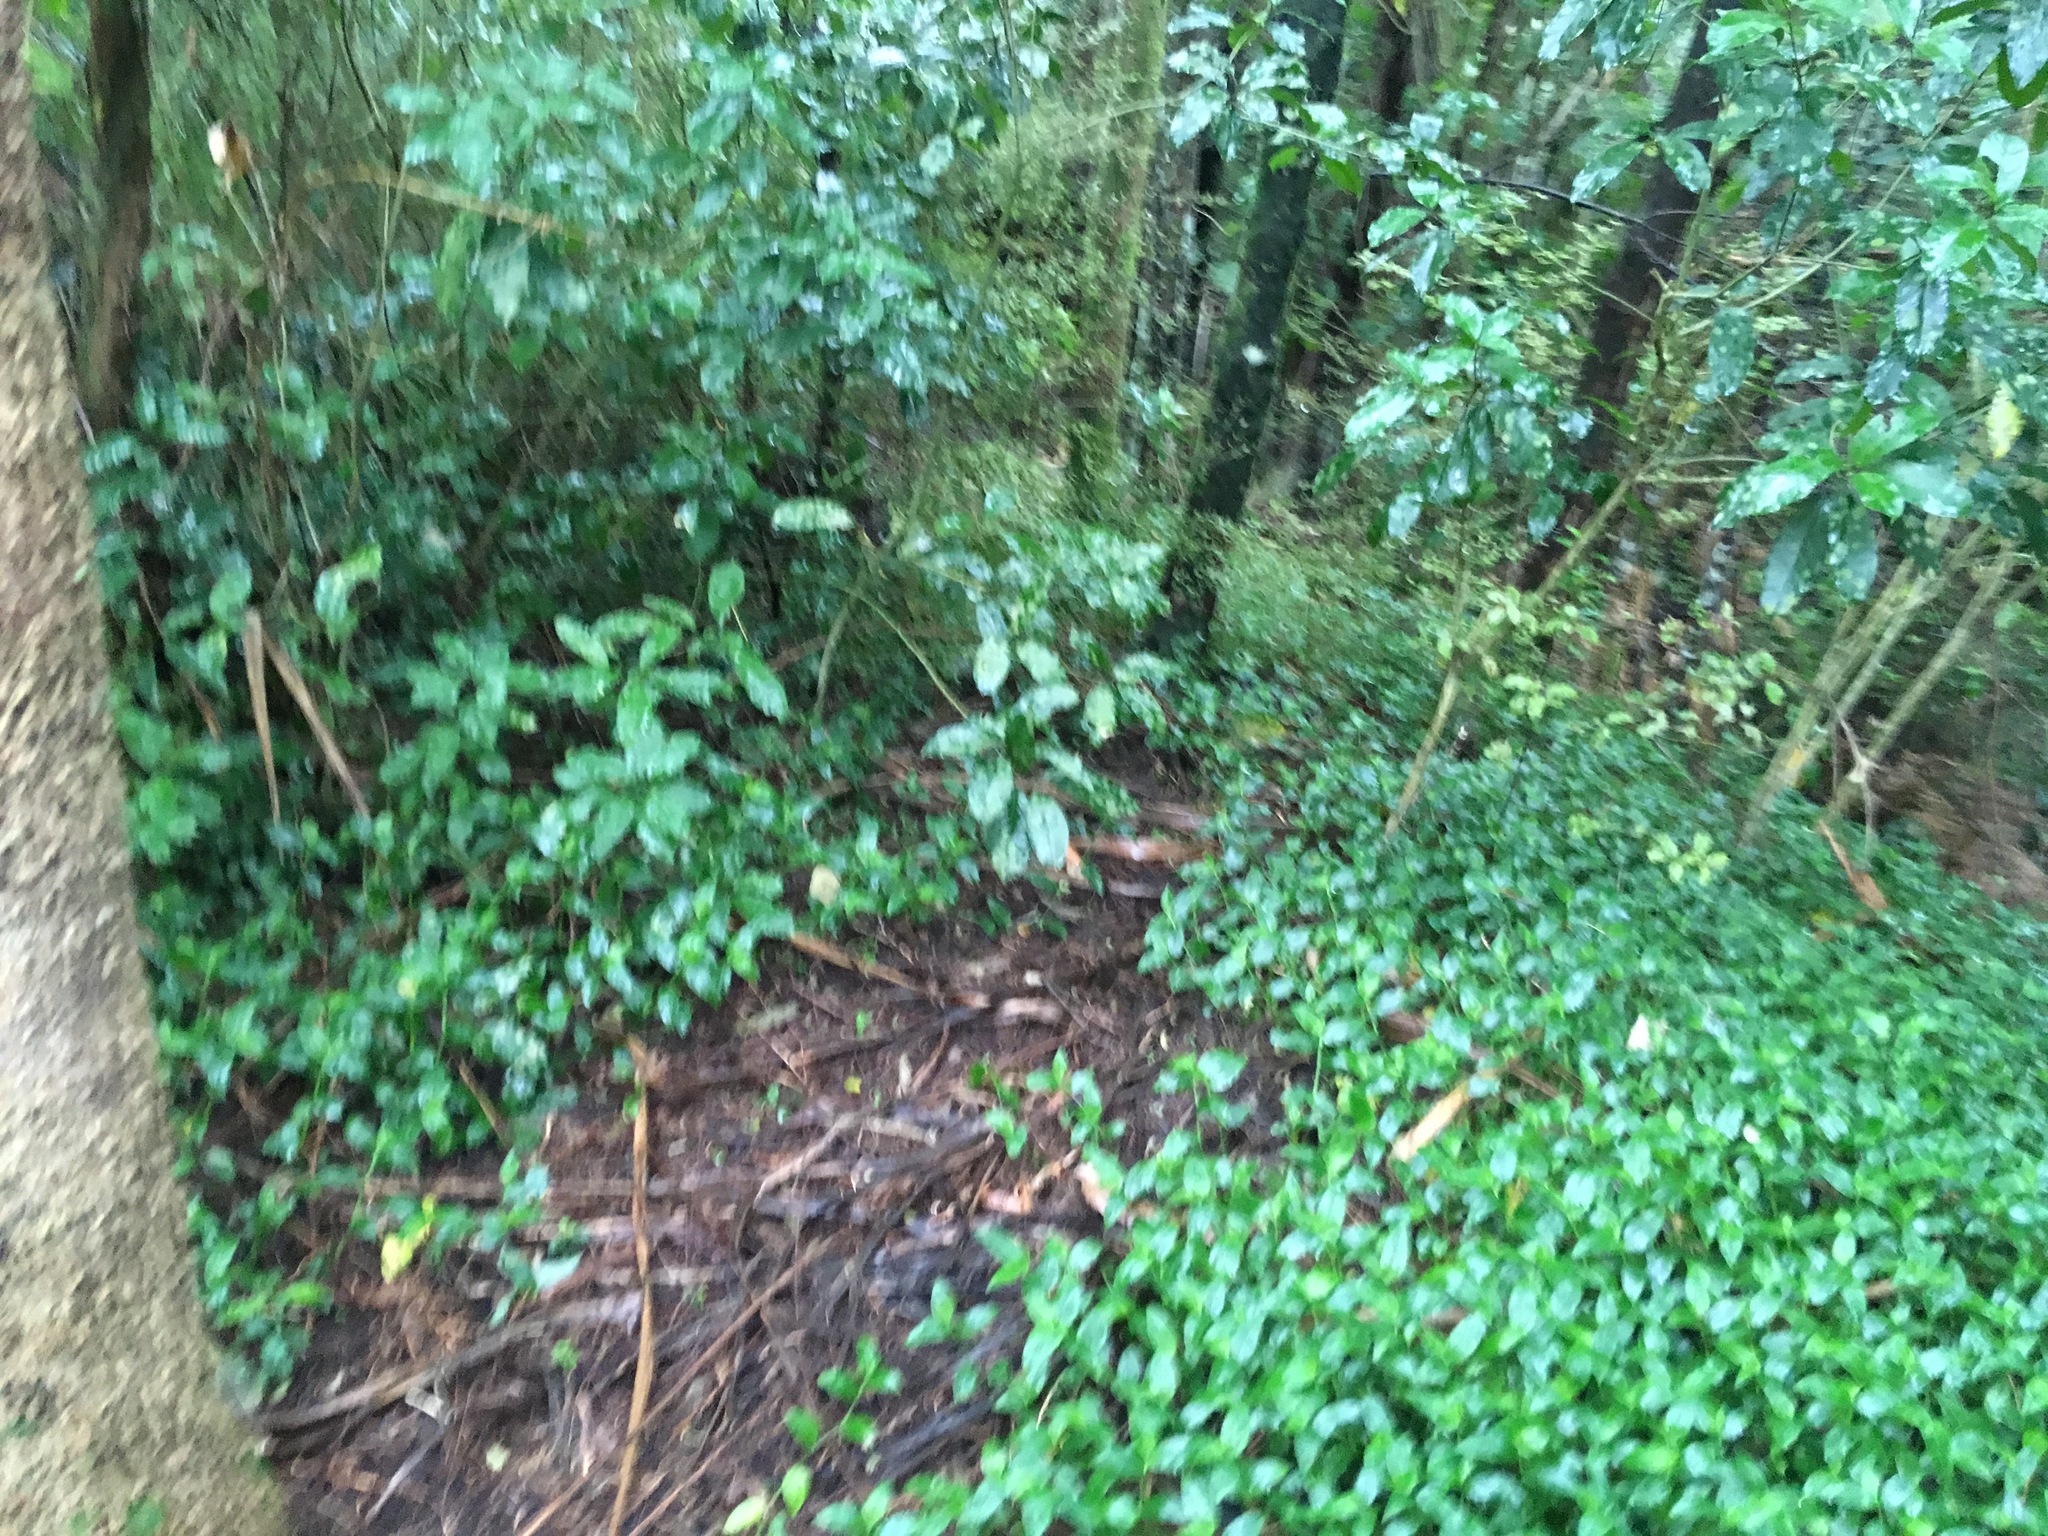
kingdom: Plantae
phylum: Tracheophyta
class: Liliopsida
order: Commelinales
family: Commelinaceae
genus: Tradescantia
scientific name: Tradescantia fluminensis
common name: Wandering-jew
